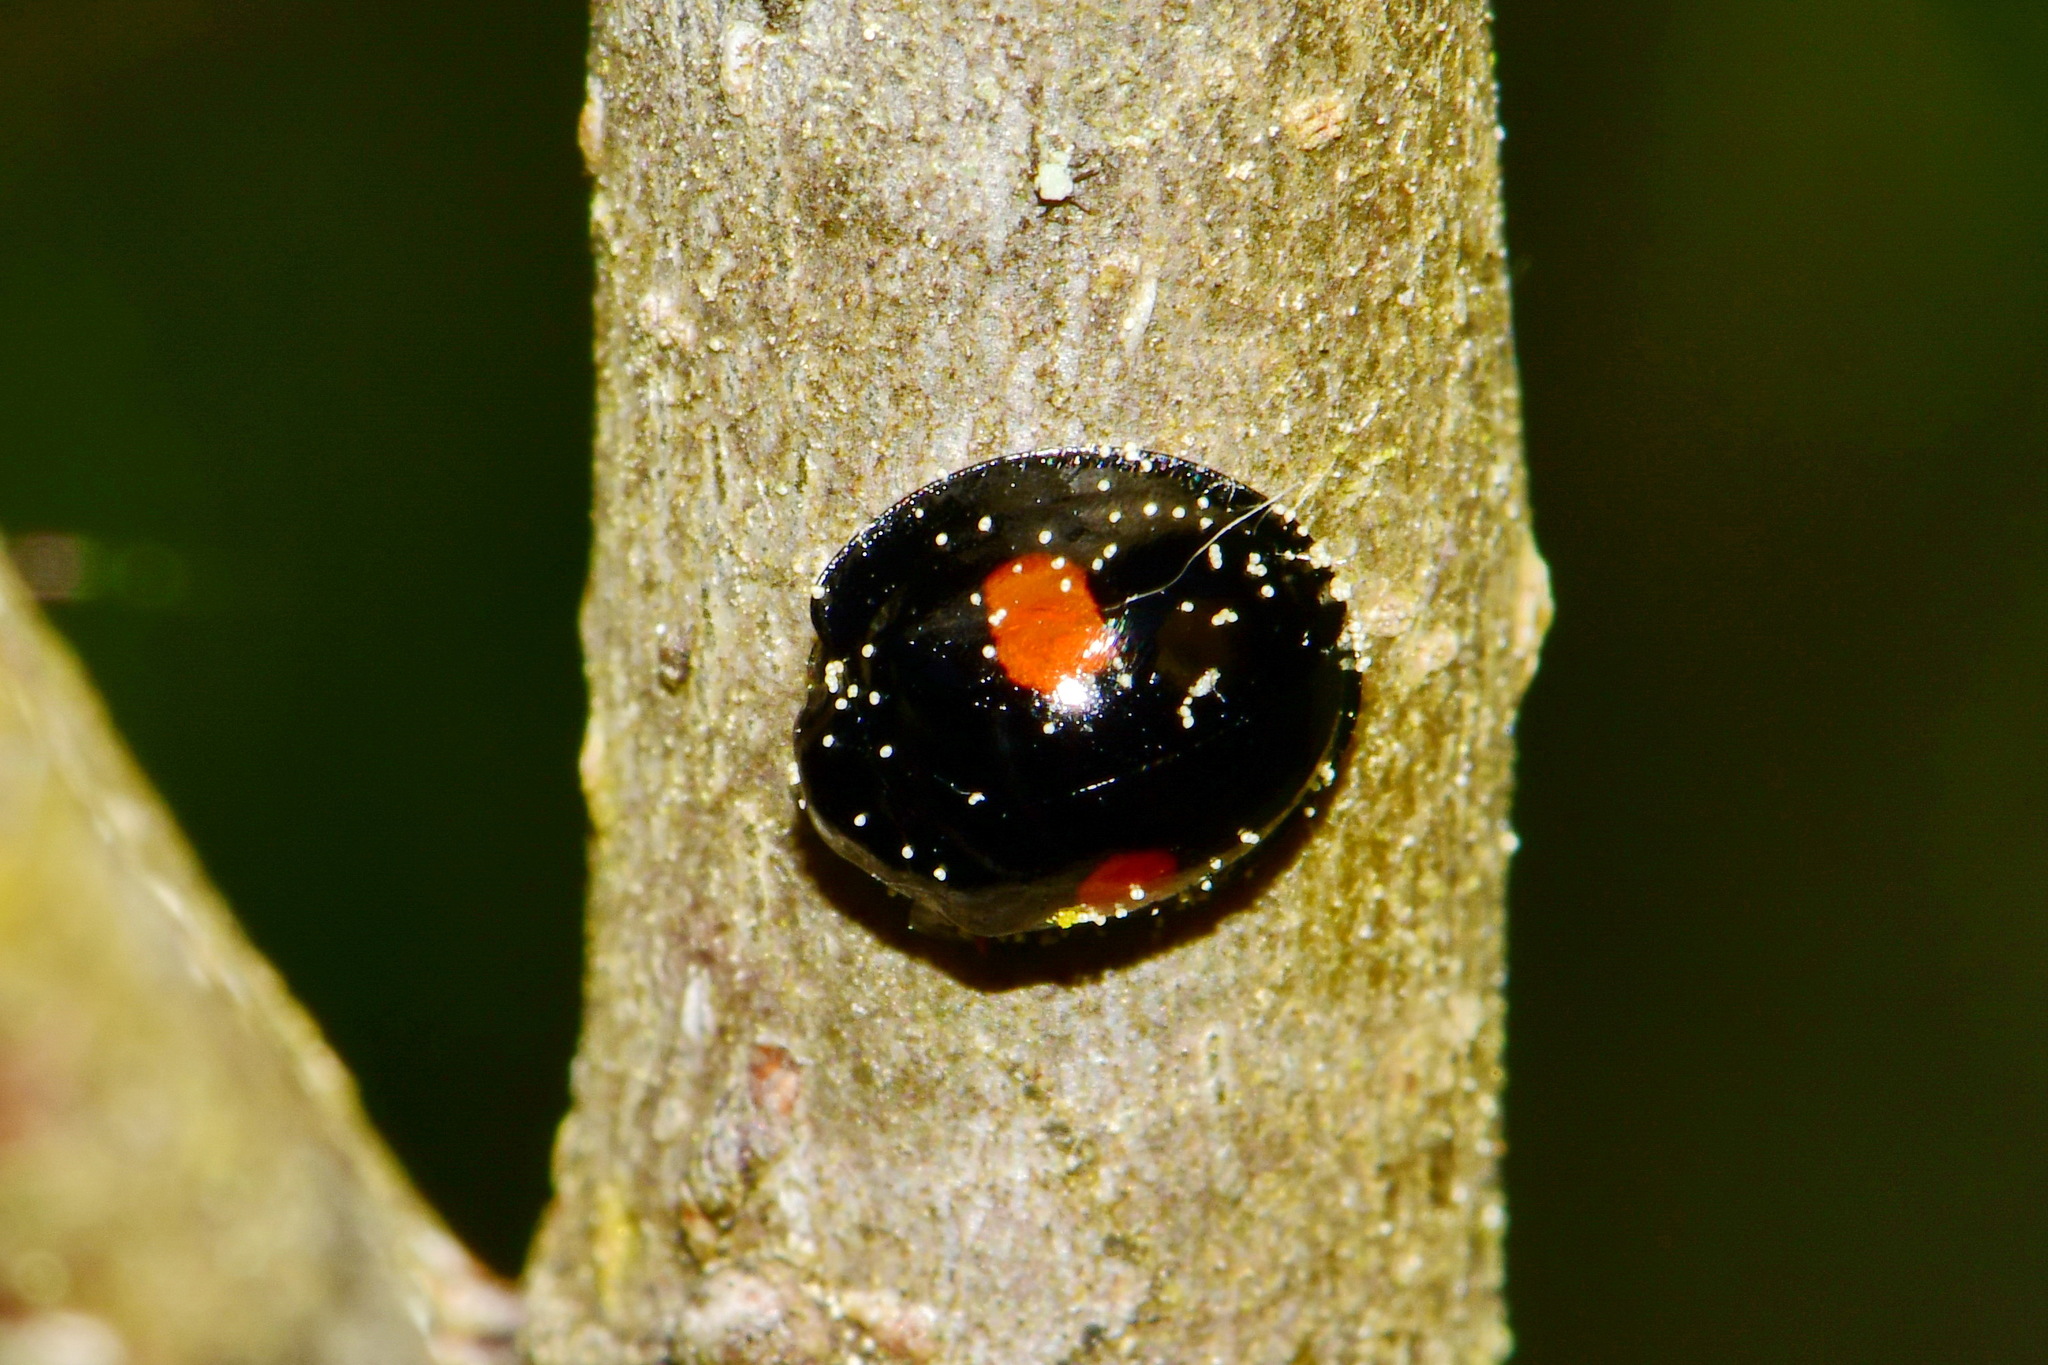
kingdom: Animalia
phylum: Arthropoda
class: Insecta
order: Coleoptera
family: Coccinellidae
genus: Chilocorus
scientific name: Chilocorus renipustulatus
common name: Kidney-spot ladybird
